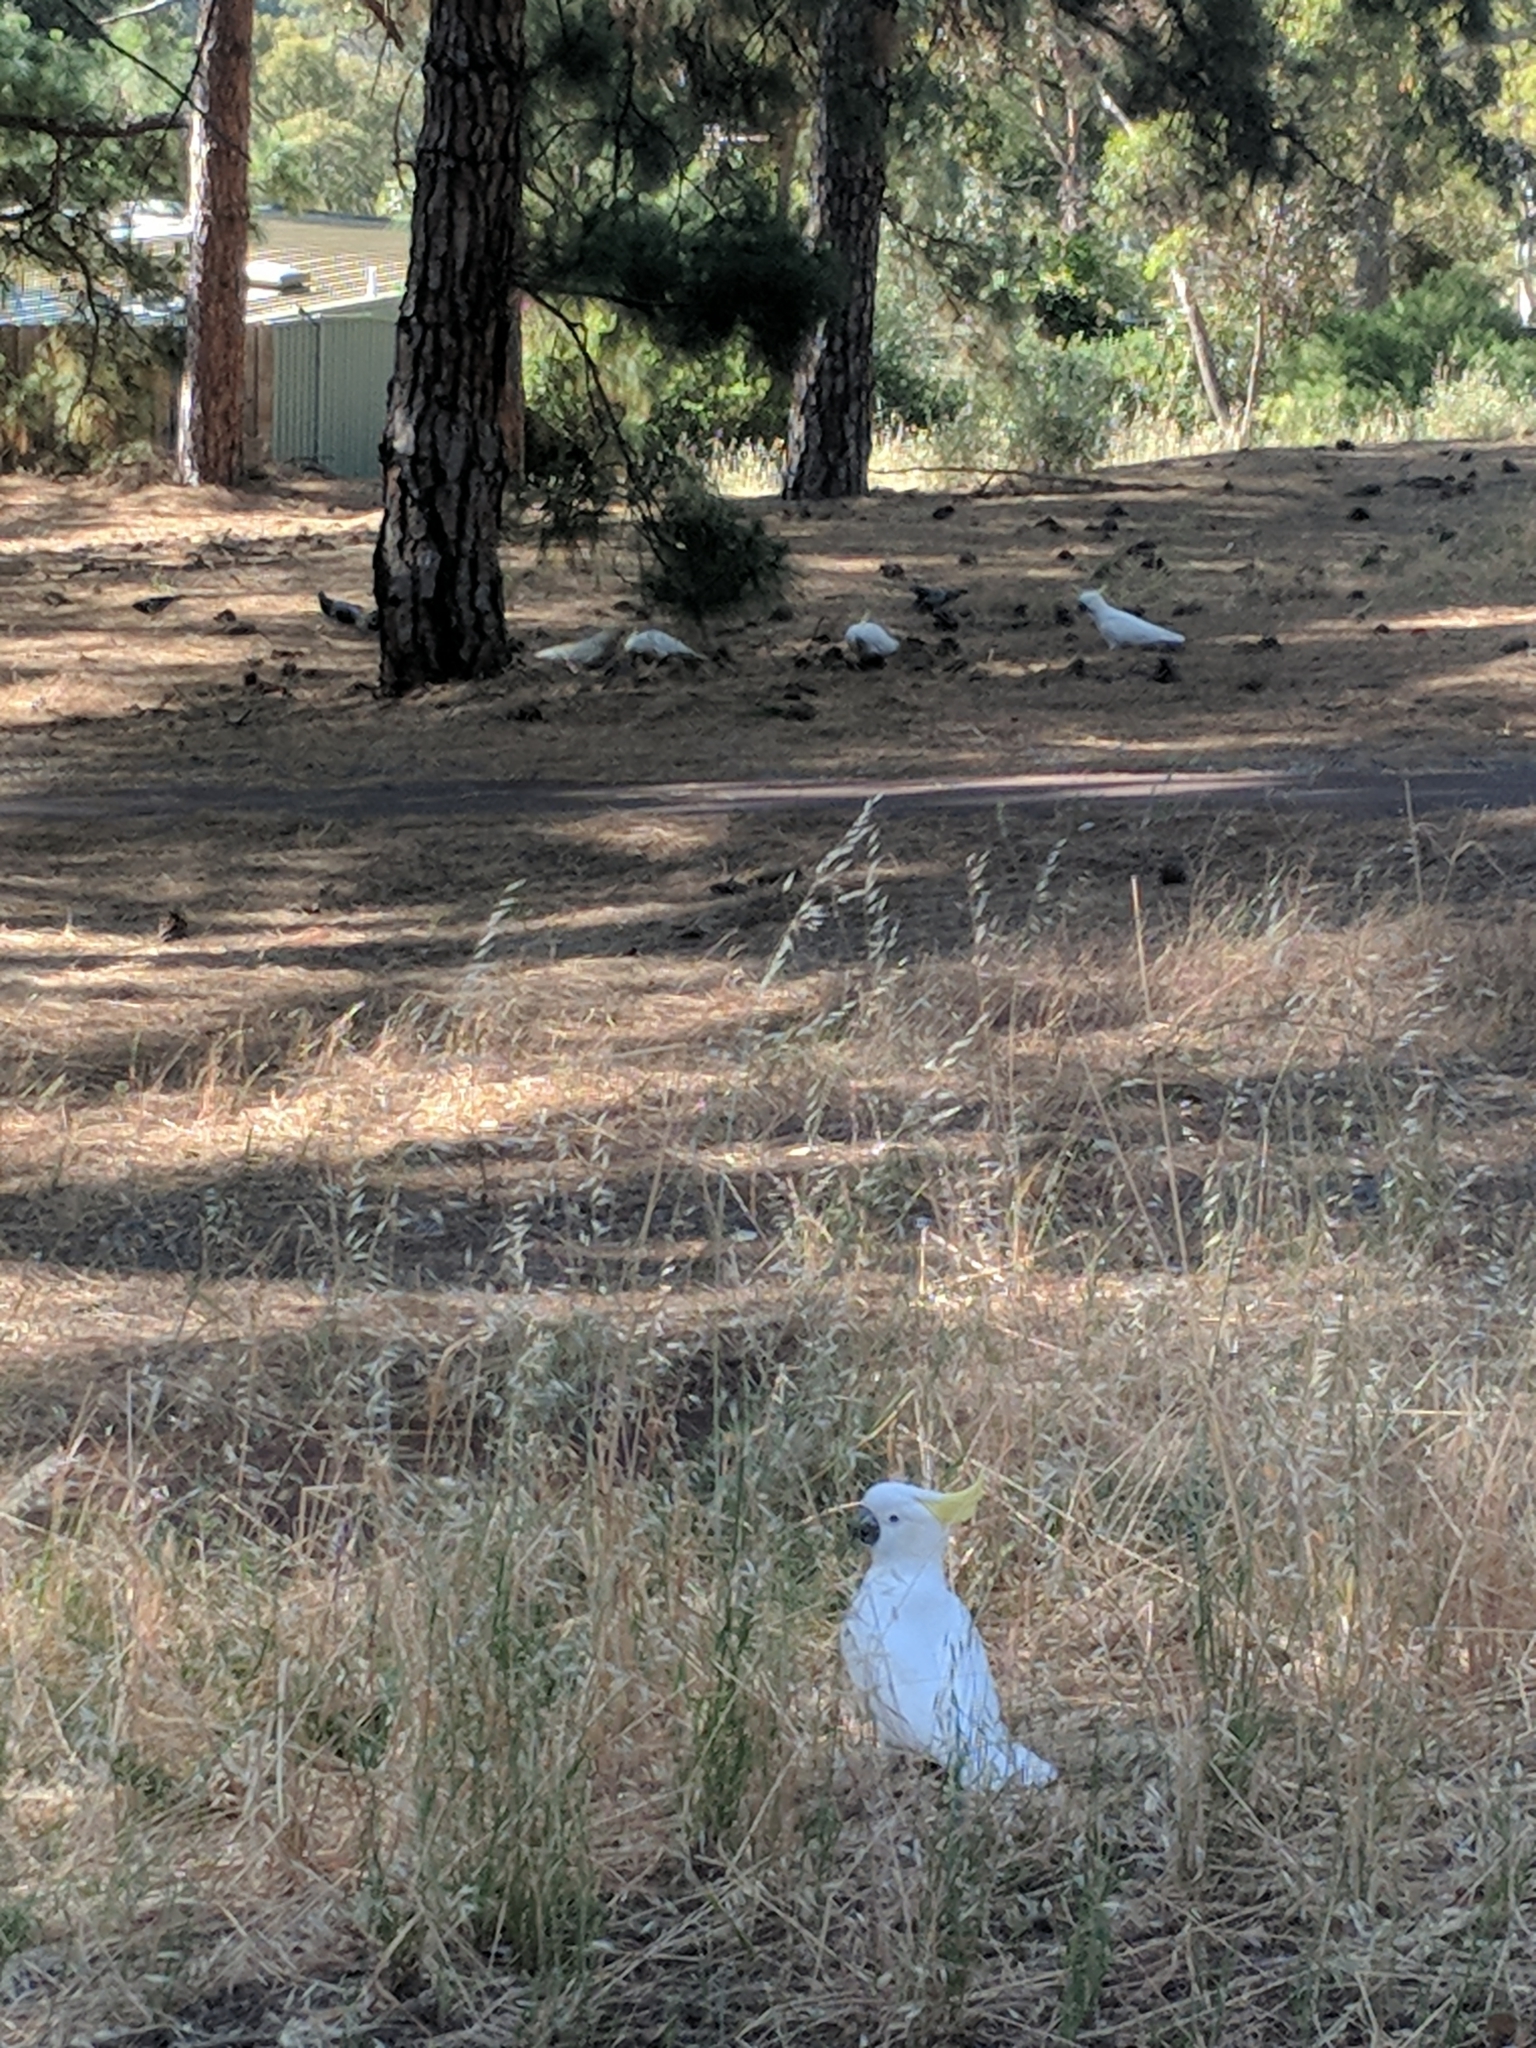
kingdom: Animalia
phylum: Chordata
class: Aves
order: Psittaciformes
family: Psittacidae
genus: Cacatua
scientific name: Cacatua galerita
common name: Sulphur-crested cockatoo
